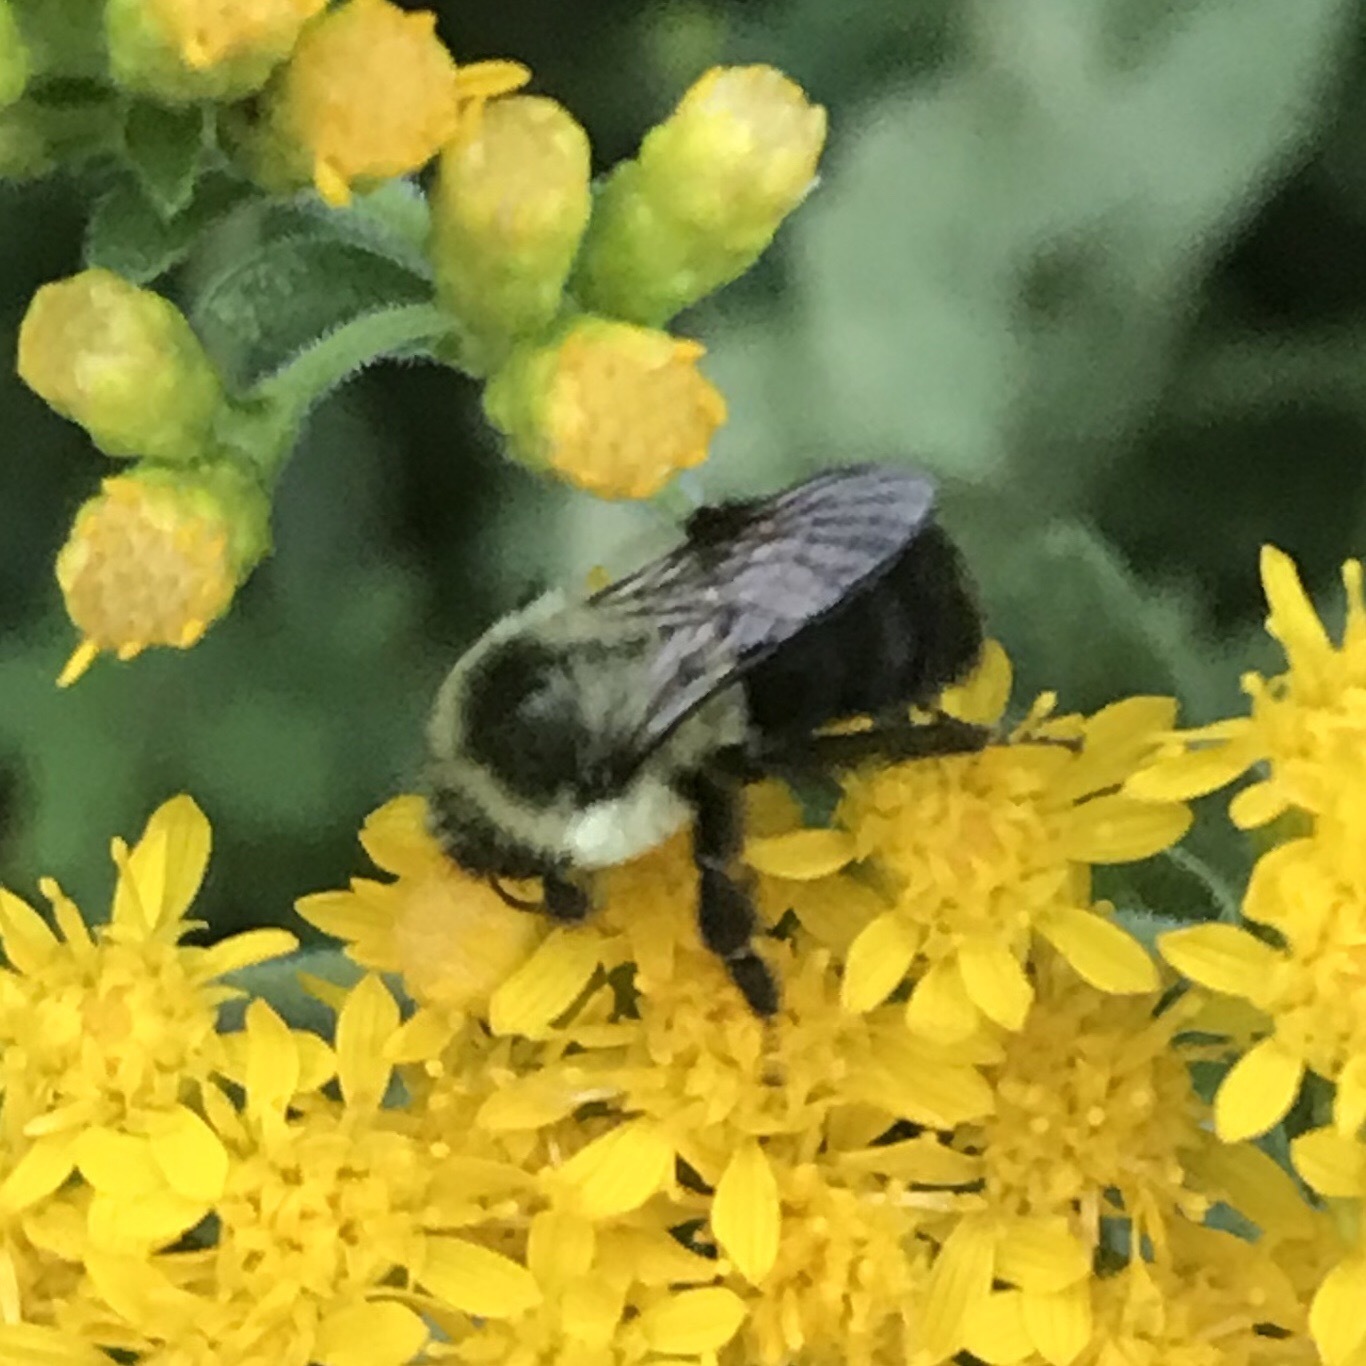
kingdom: Animalia
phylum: Arthropoda
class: Insecta
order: Hymenoptera
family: Apidae
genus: Bombus
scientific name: Bombus impatiens
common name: Common eastern bumble bee
